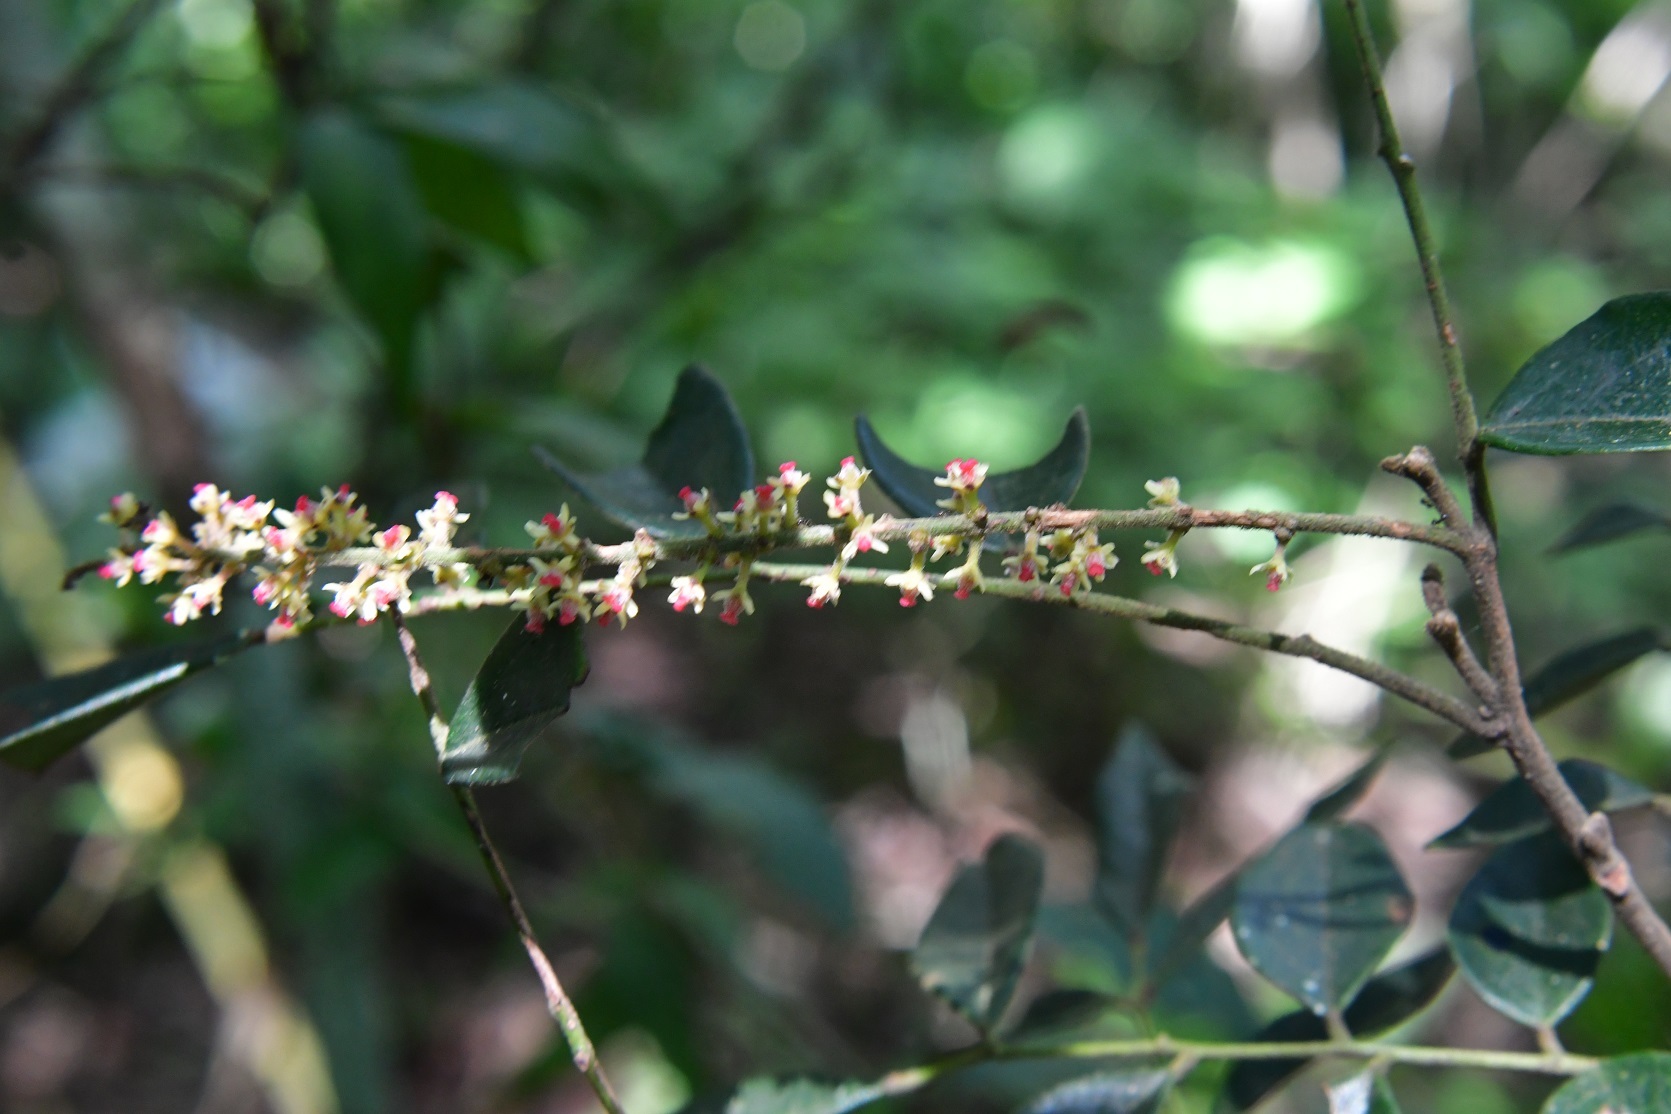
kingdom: Plantae
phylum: Tracheophyta
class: Magnoliopsida
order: Picramniales
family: Picramniaceae
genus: Picramnia
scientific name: Picramnia antidesma
